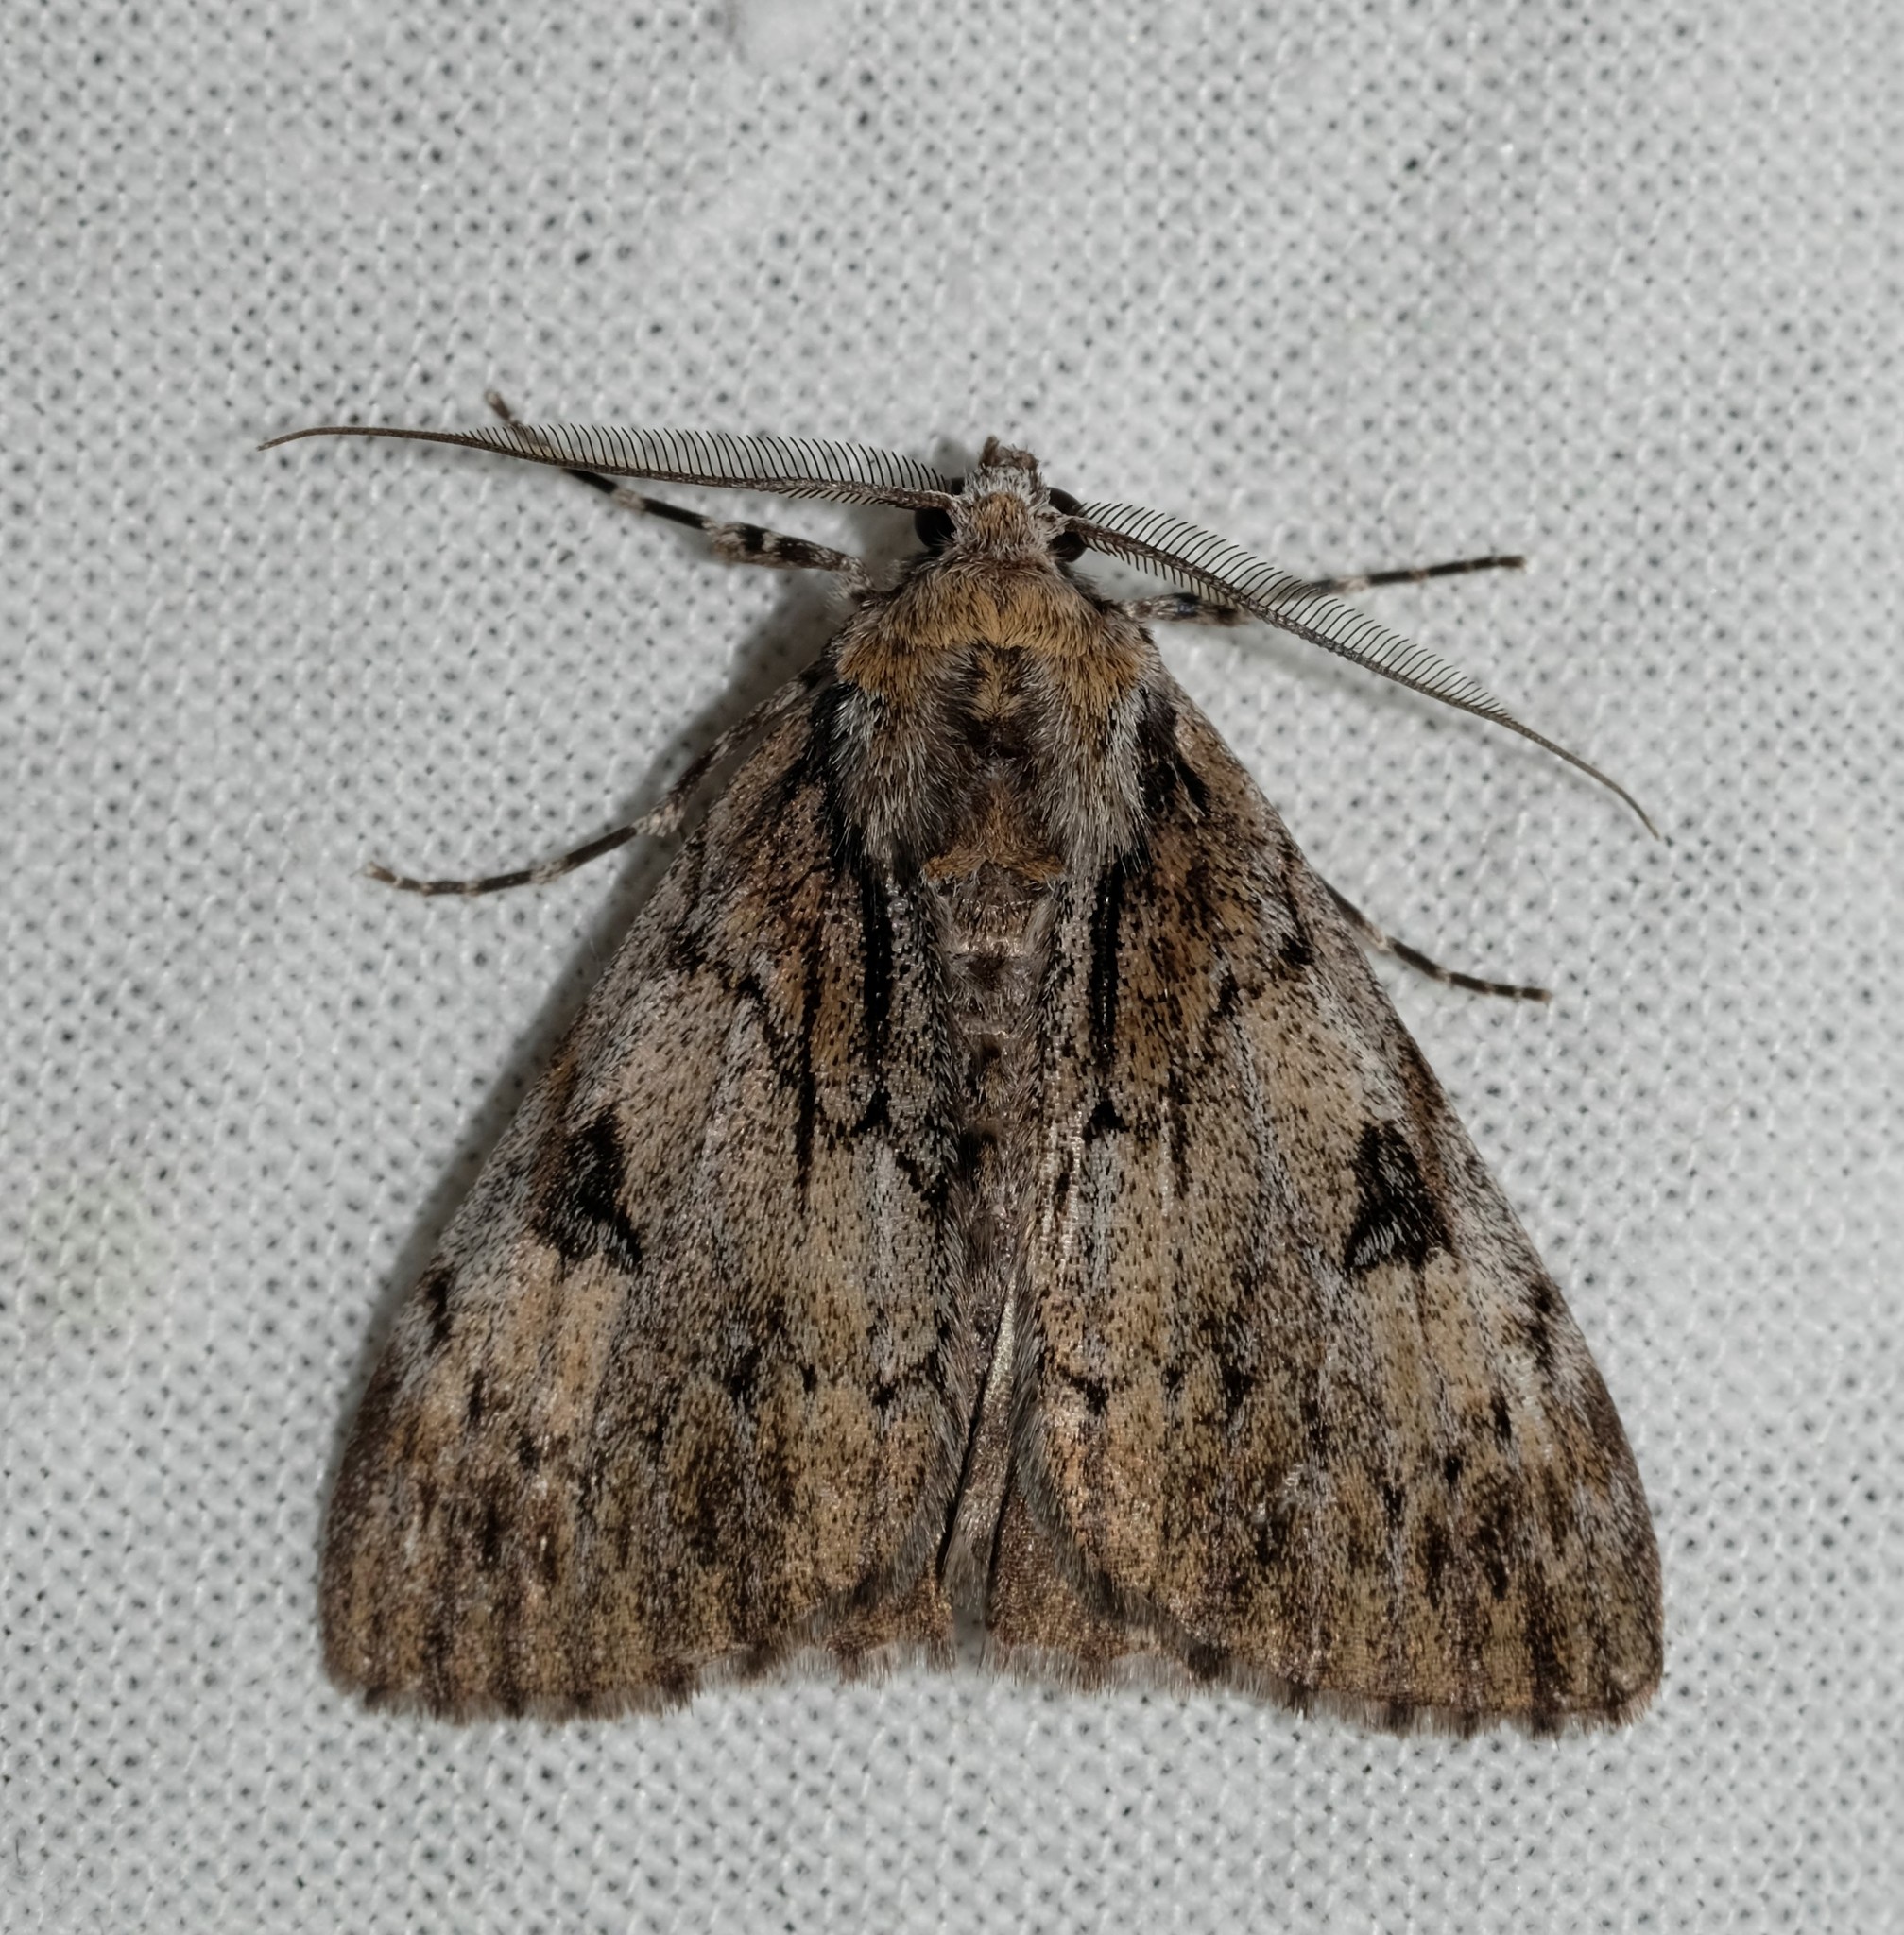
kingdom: Animalia
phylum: Arthropoda
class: Insecta
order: Lepidoptera
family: Geometridae
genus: Rhuma
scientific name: Rhuma
